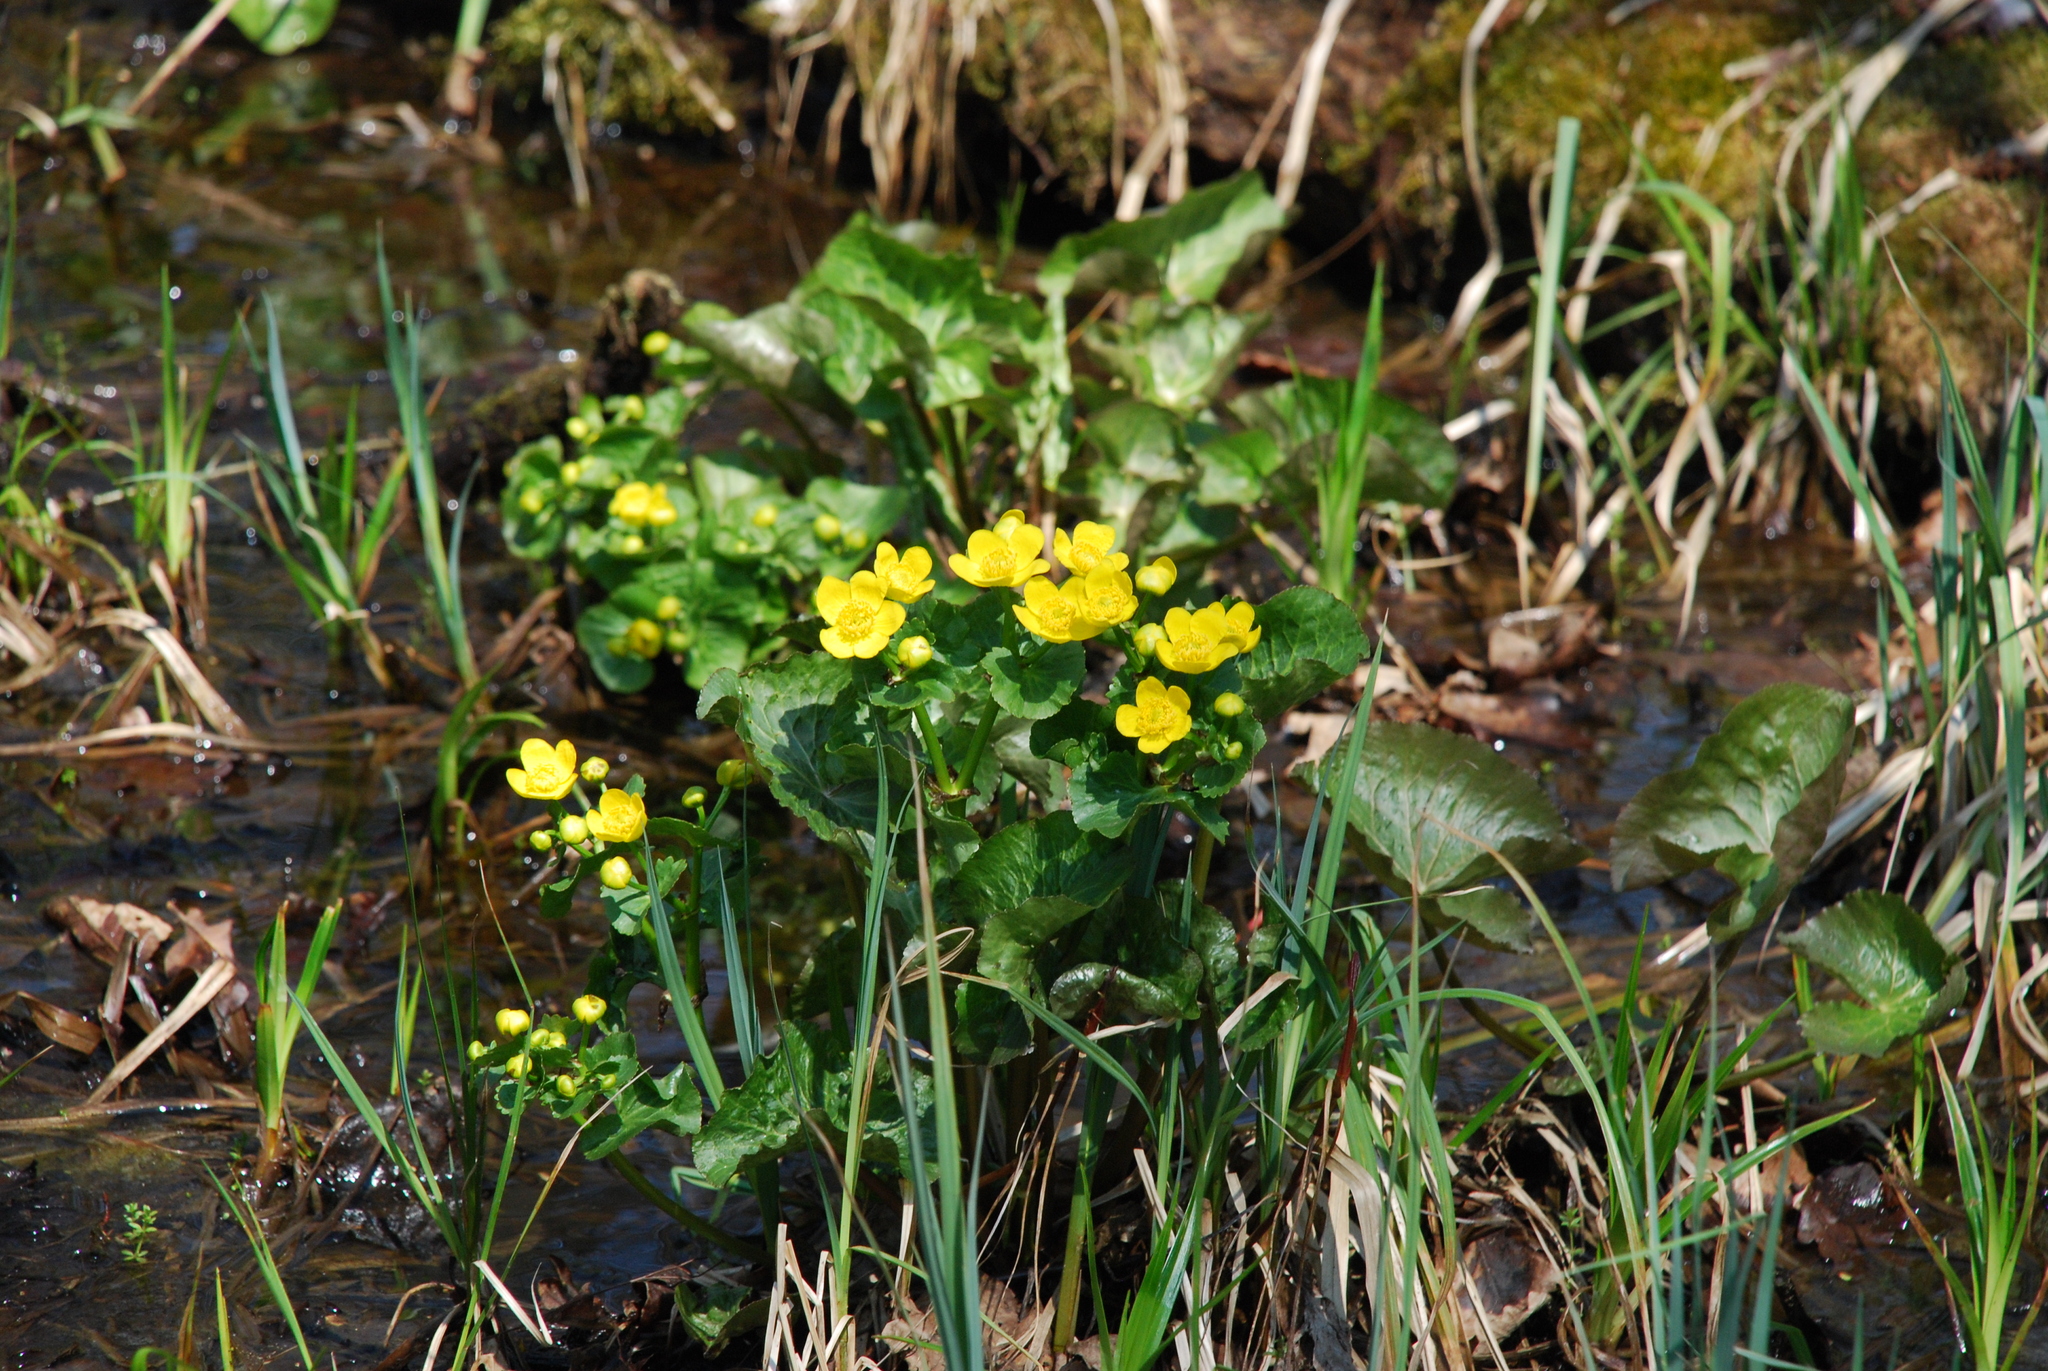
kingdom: Plantae
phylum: Tracheophyta
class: Magnoliopsida
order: Ranunculales
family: Ranunculaceae
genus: Caltha
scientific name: Caltha palustris
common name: Marsh marigold
